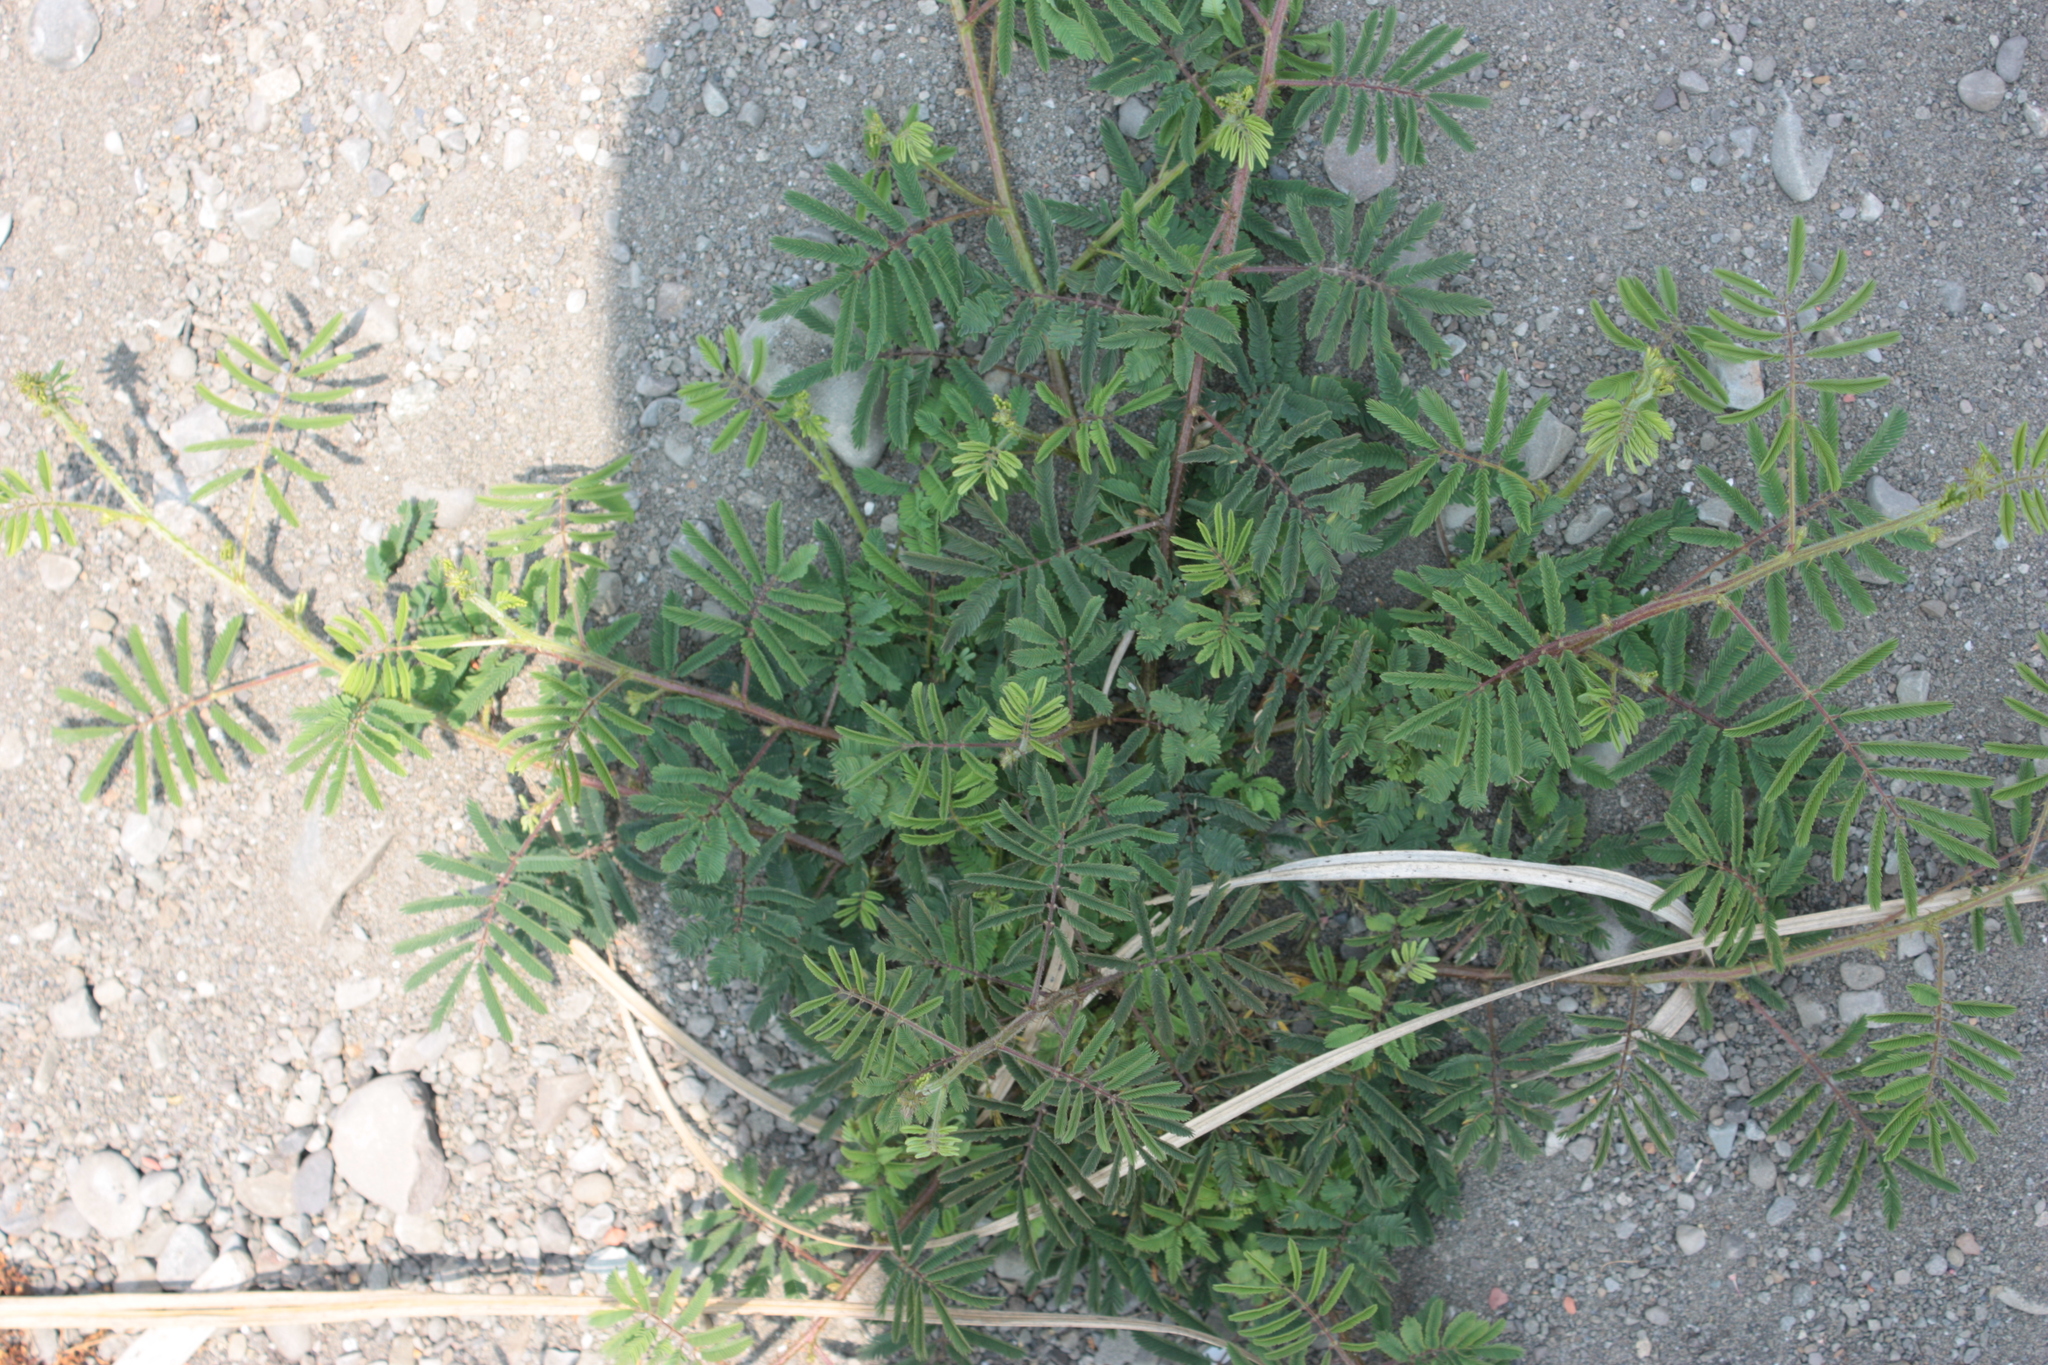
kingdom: Plantae
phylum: Tracheophyta
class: Magnoliopsida
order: Fabales
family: Fabaceae
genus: Mimosa
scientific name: Mimosa diplotricha
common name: Giant sensitive-plant
